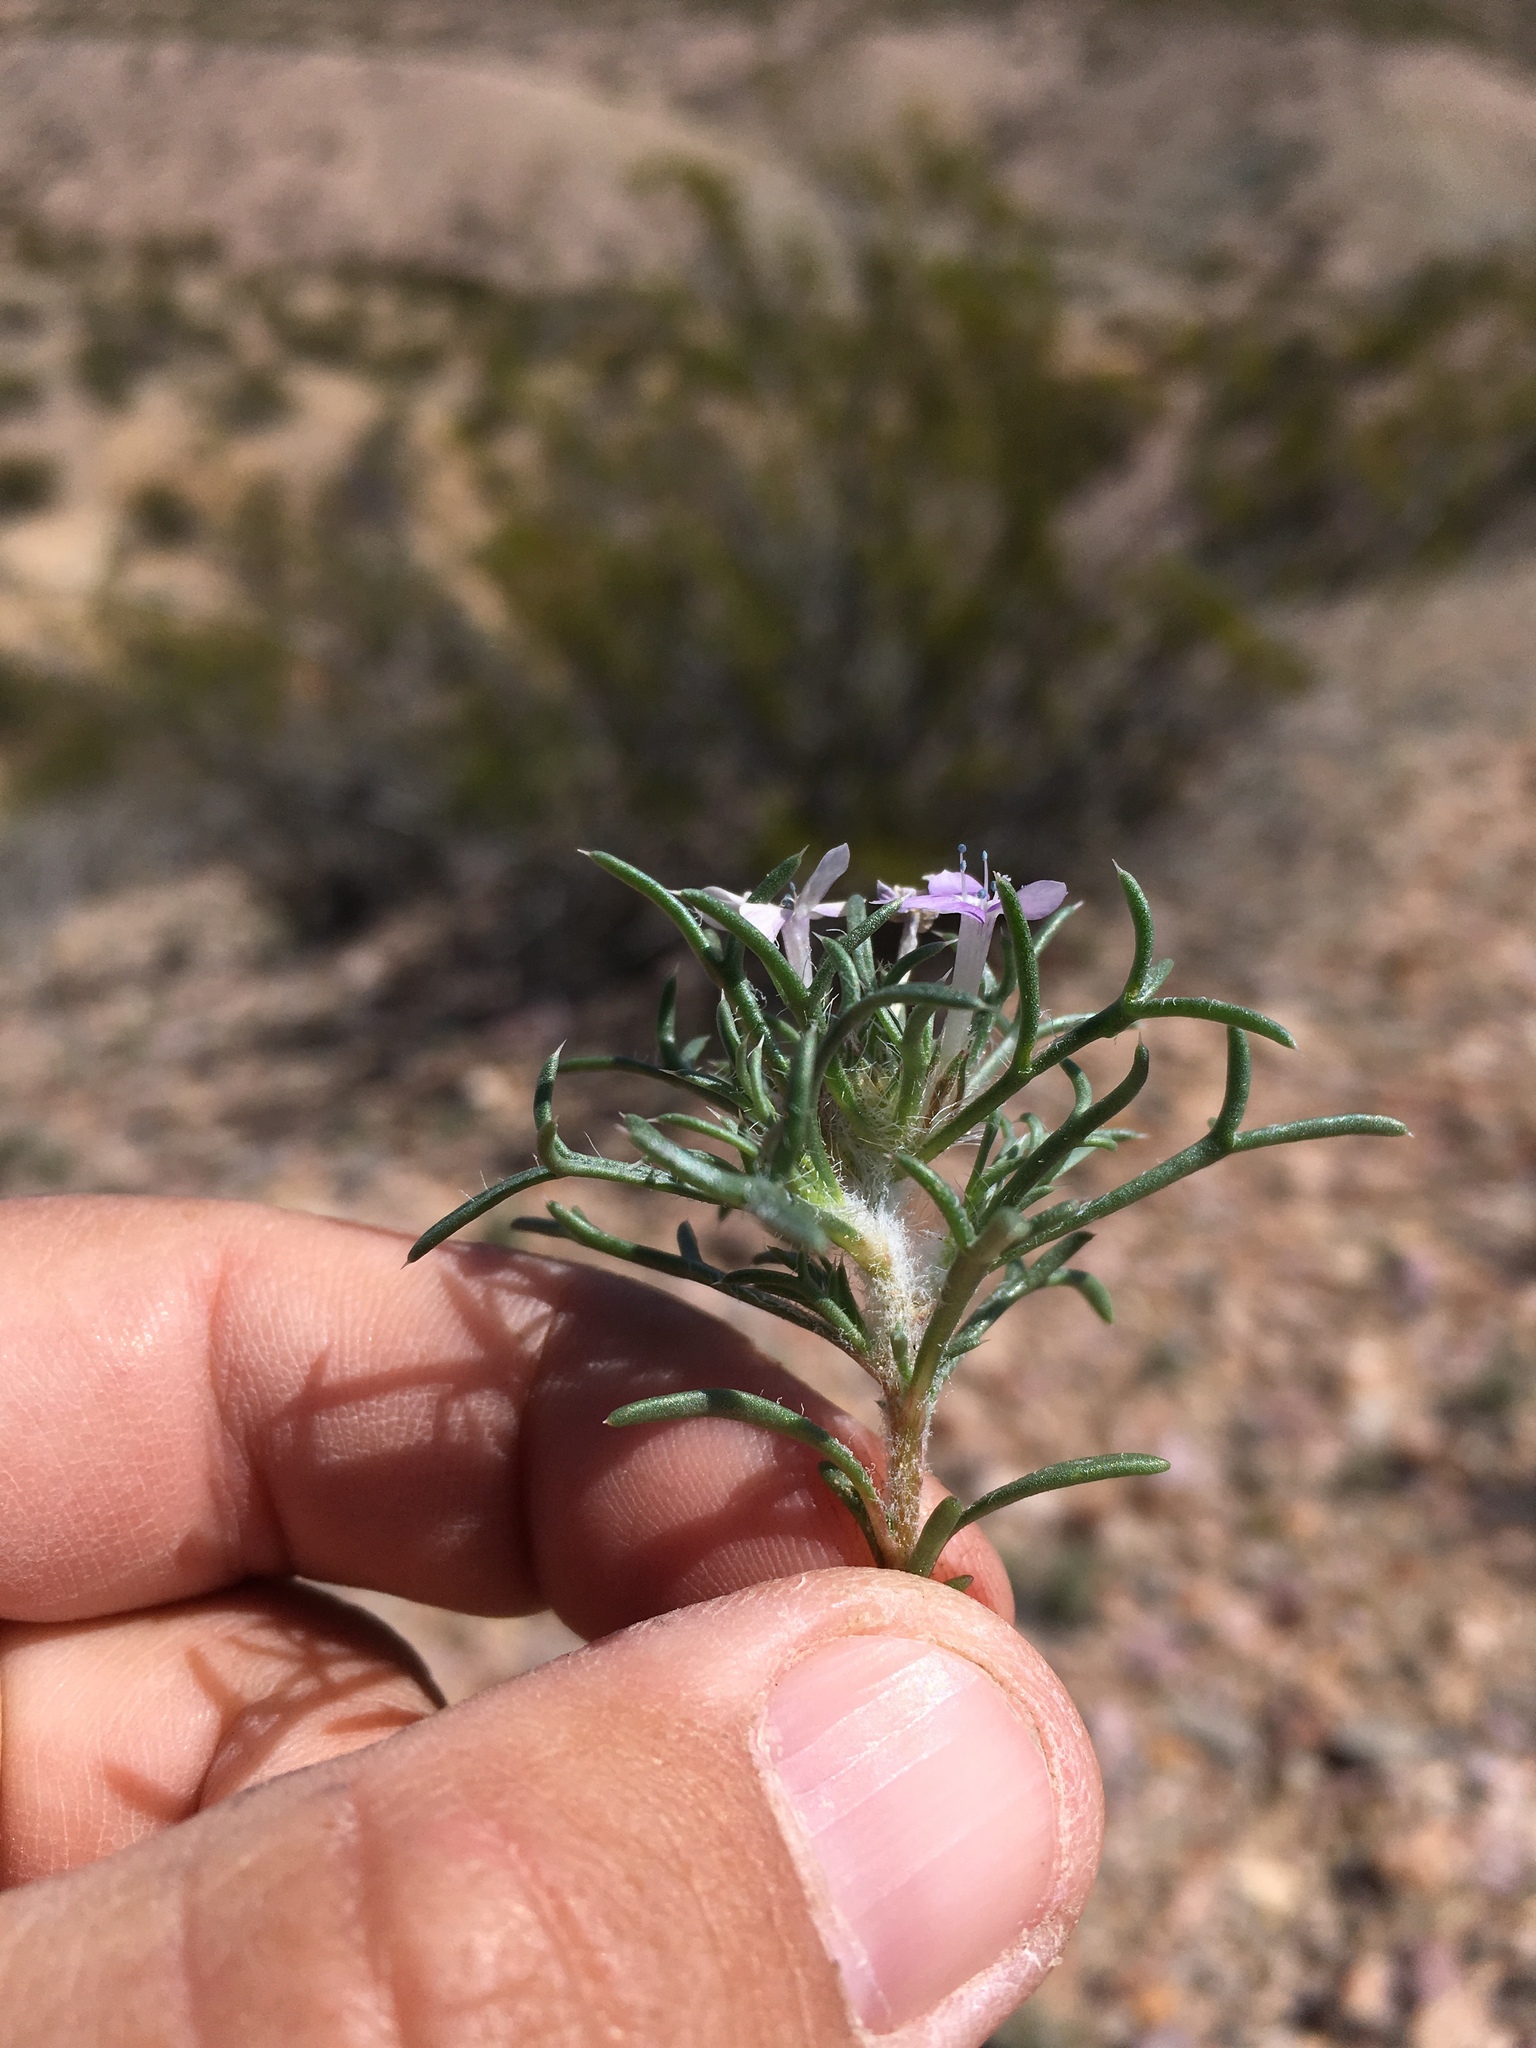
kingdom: Plantae
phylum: Tracheophyta
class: Magnoliopsida
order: Ericales
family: Polemoniaceae
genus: Ipomopsis
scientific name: Ipomopsis pumila
